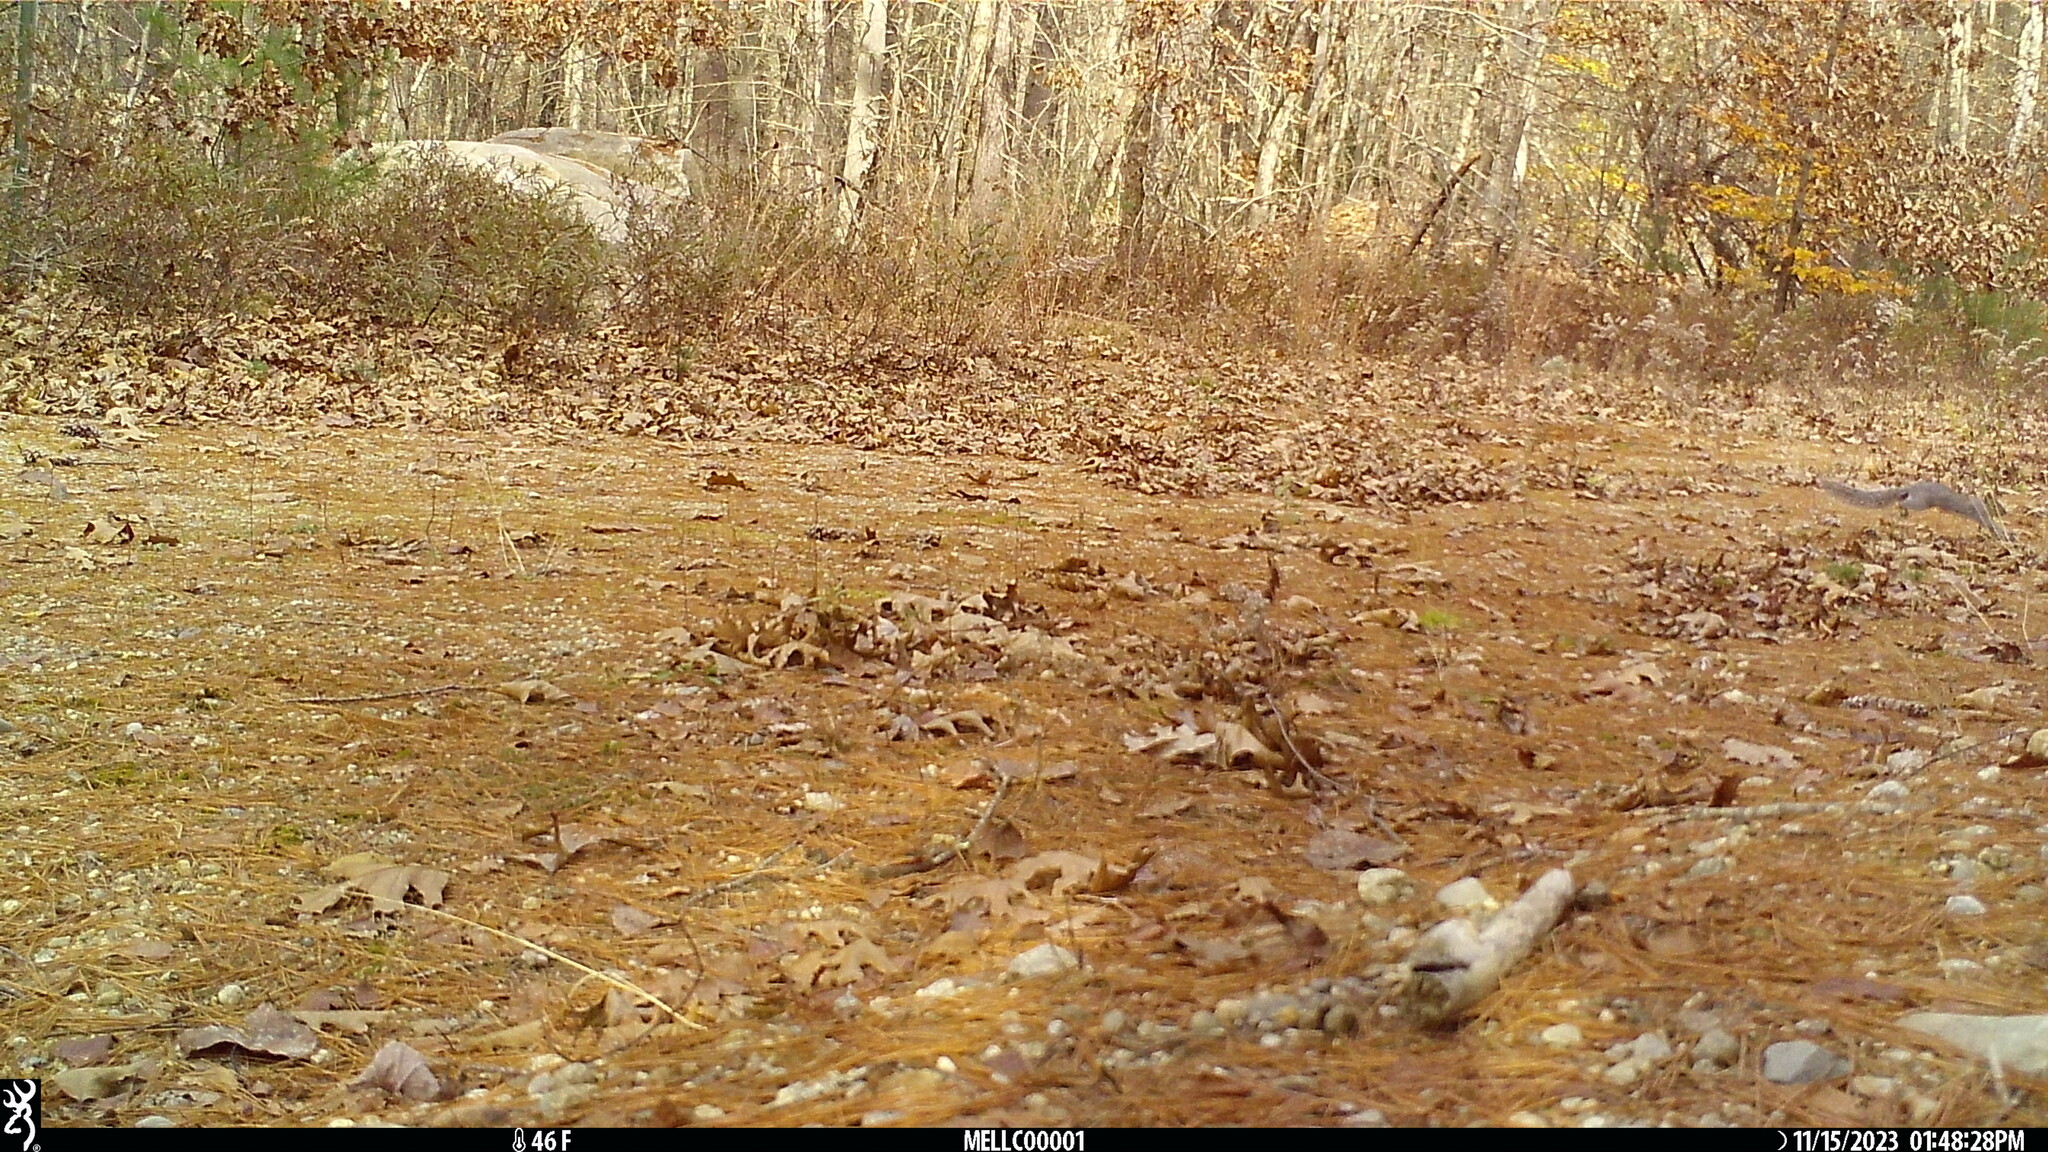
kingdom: Animalia
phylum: Chordata
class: Mammalia
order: Rodentia
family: Sciuridae
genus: Sciurus
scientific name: Sciurus carolinensis
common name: Eastern gray squirrel
